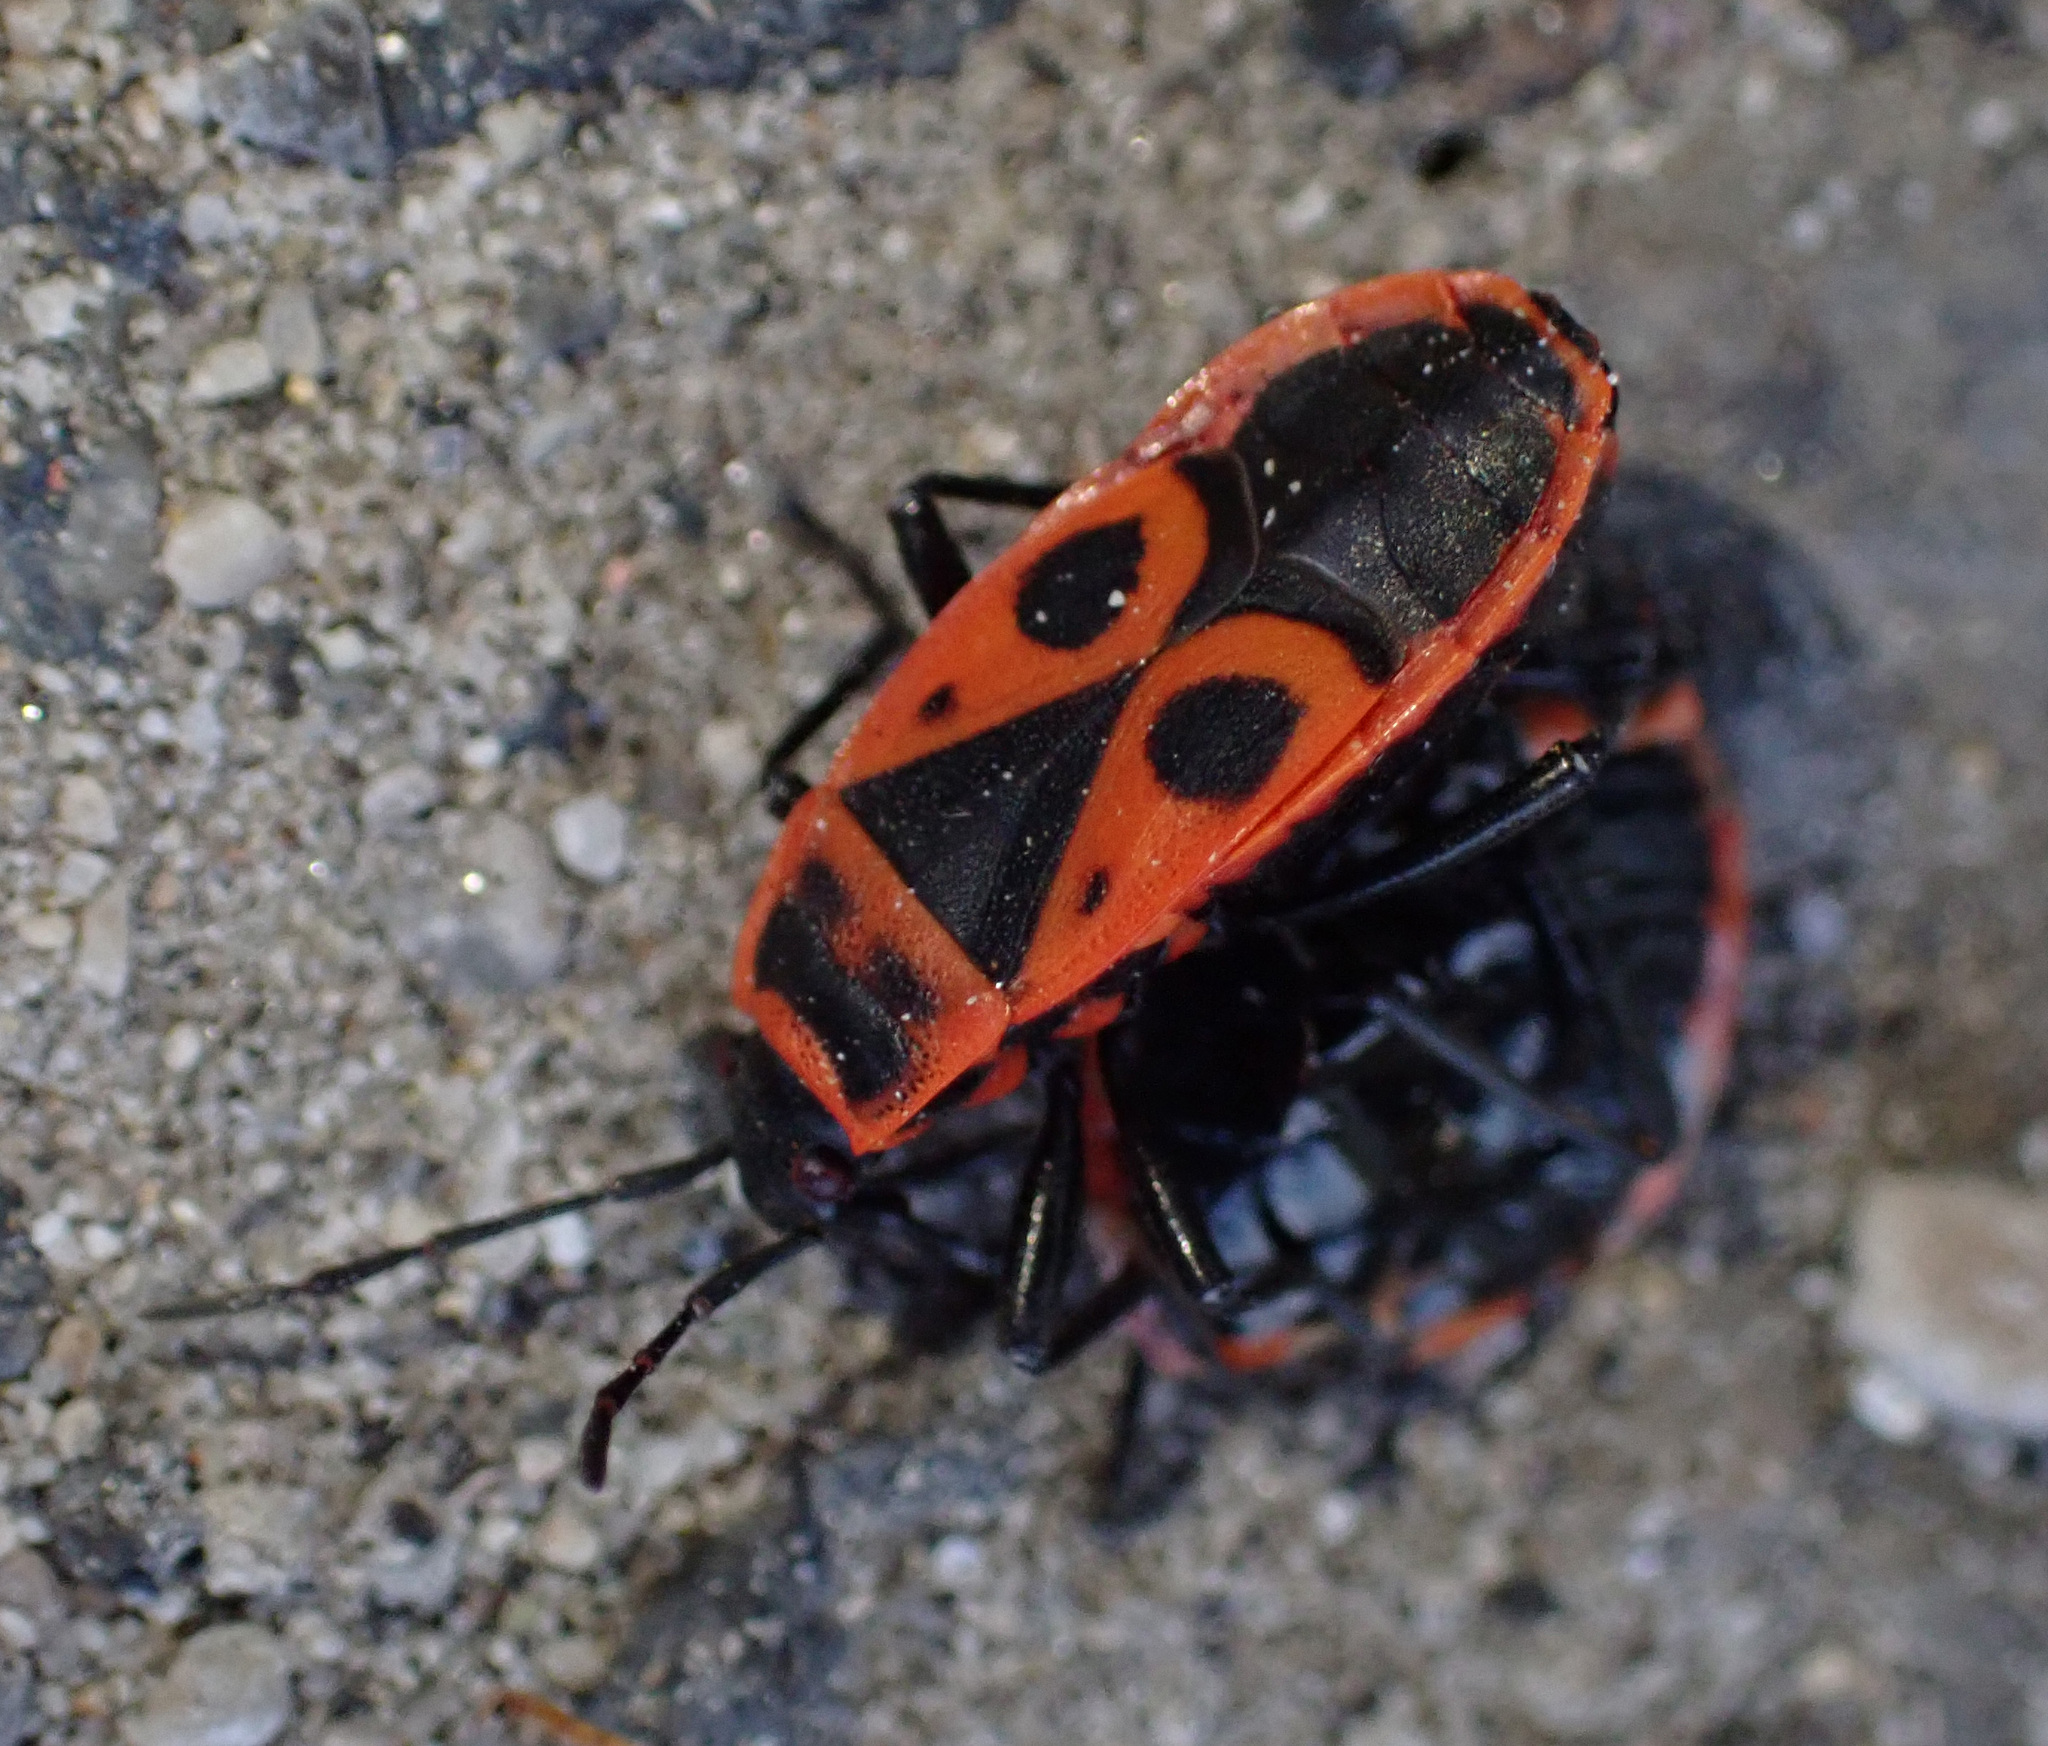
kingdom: Animalia
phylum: Arthropoda
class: Insecta
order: Hemiptera
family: Pyrrhocoridae
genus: Pyrrhocoris
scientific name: Pyrrhocoris apterus
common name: Firebug
